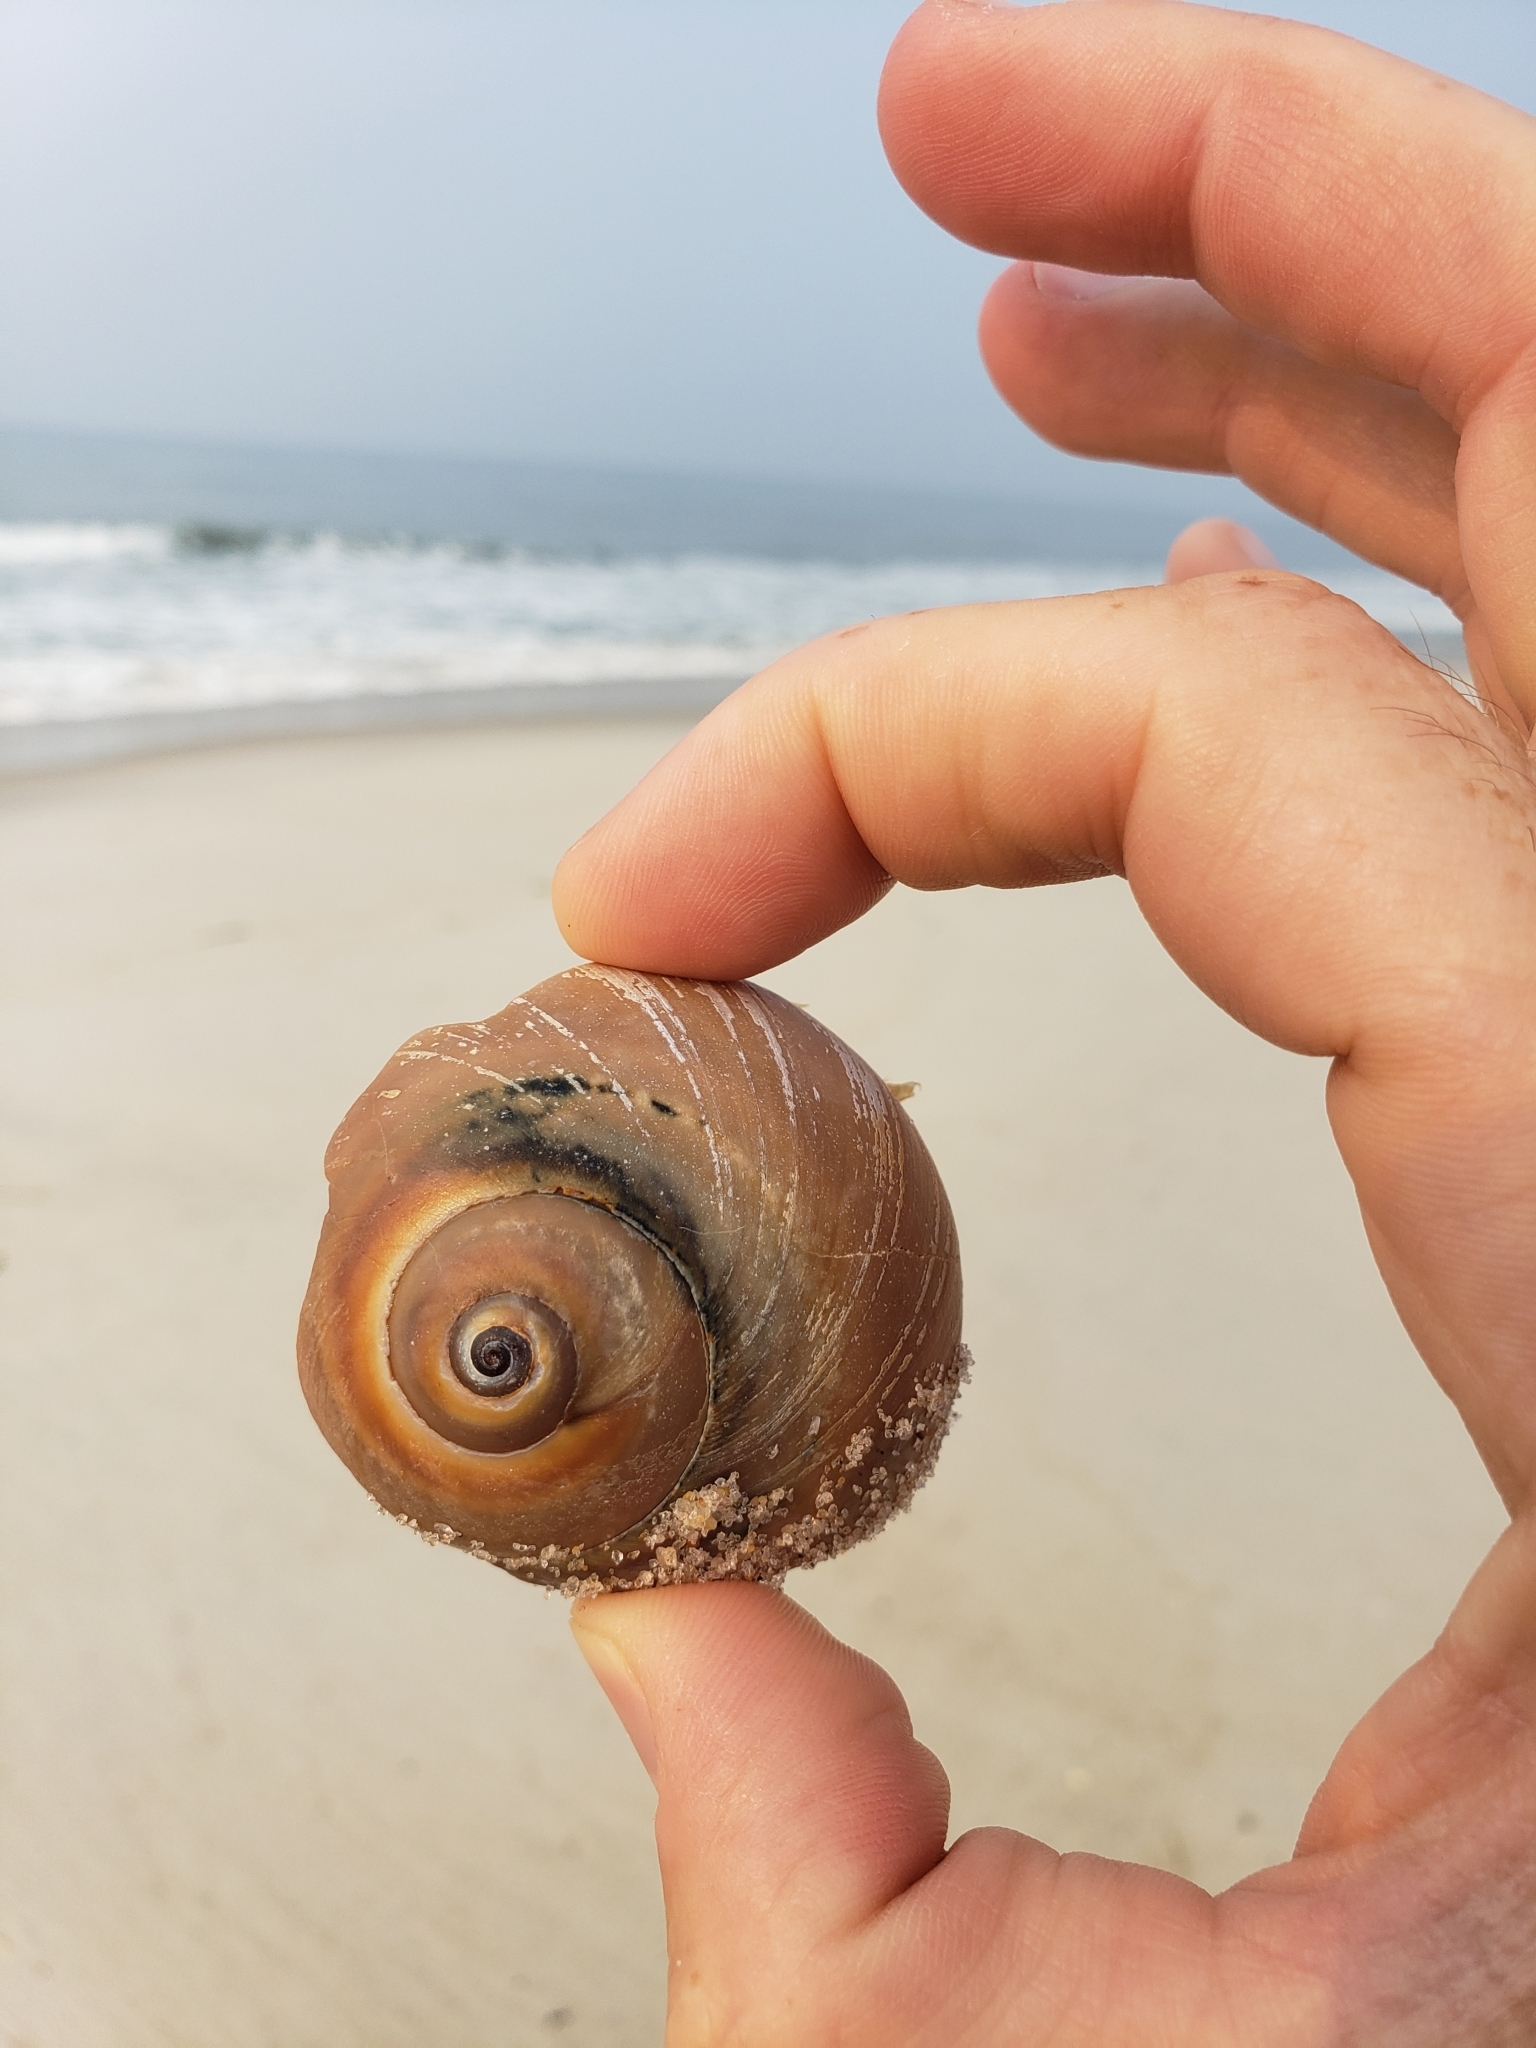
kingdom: Animalia
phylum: Mollusca
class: Gastropoda
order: Littorinimorpha
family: Naticidae
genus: Neverita
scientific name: Neverita duplicata
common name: Lobed moonsnail
